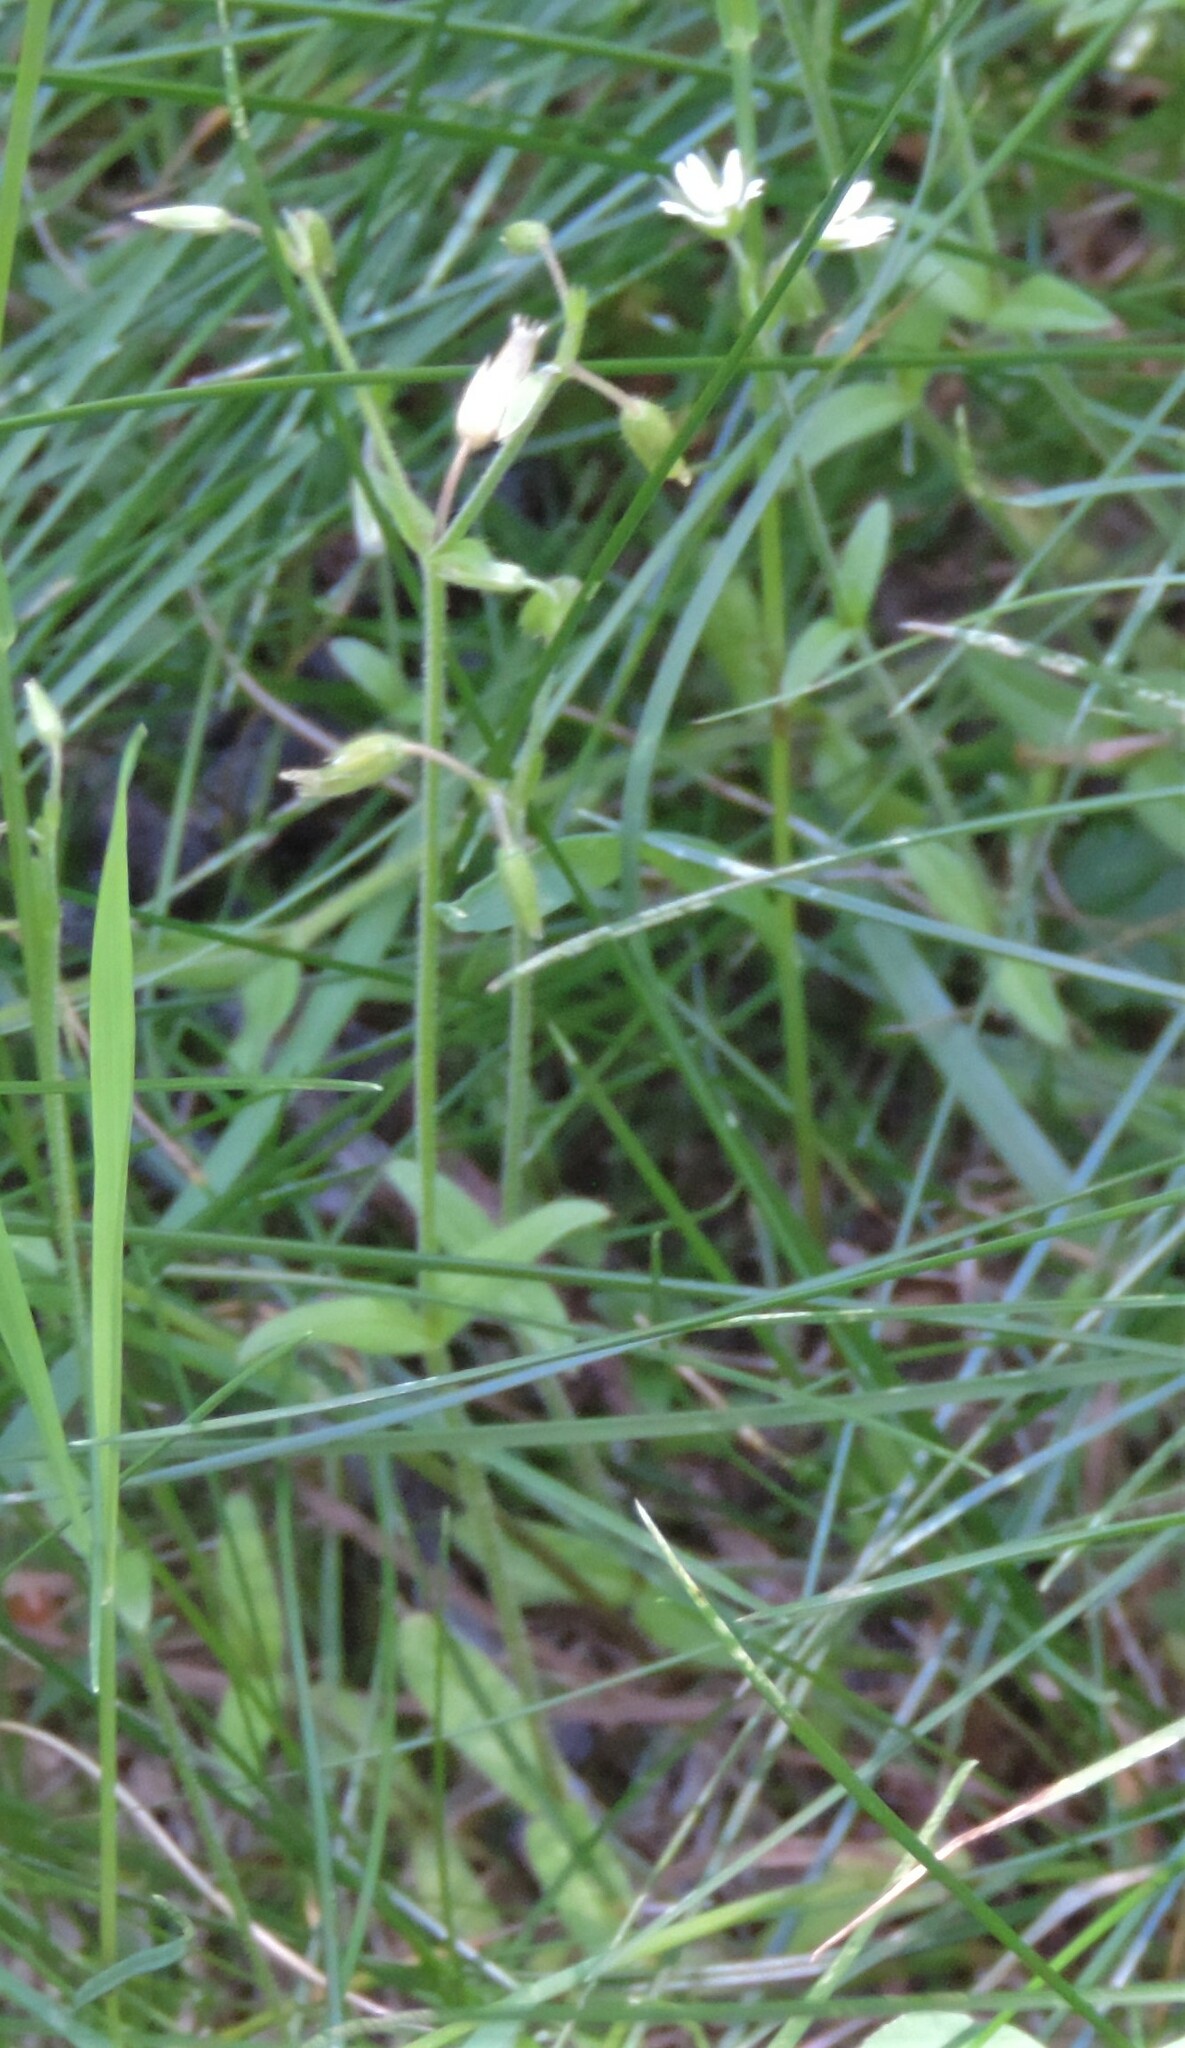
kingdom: Plantae
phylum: Tracheophyta
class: Magnoliopsida
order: Caryophyllales
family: Caryophyllaceae
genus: Cerastium
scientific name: Cerastium fontanum
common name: Common mouse-ear
